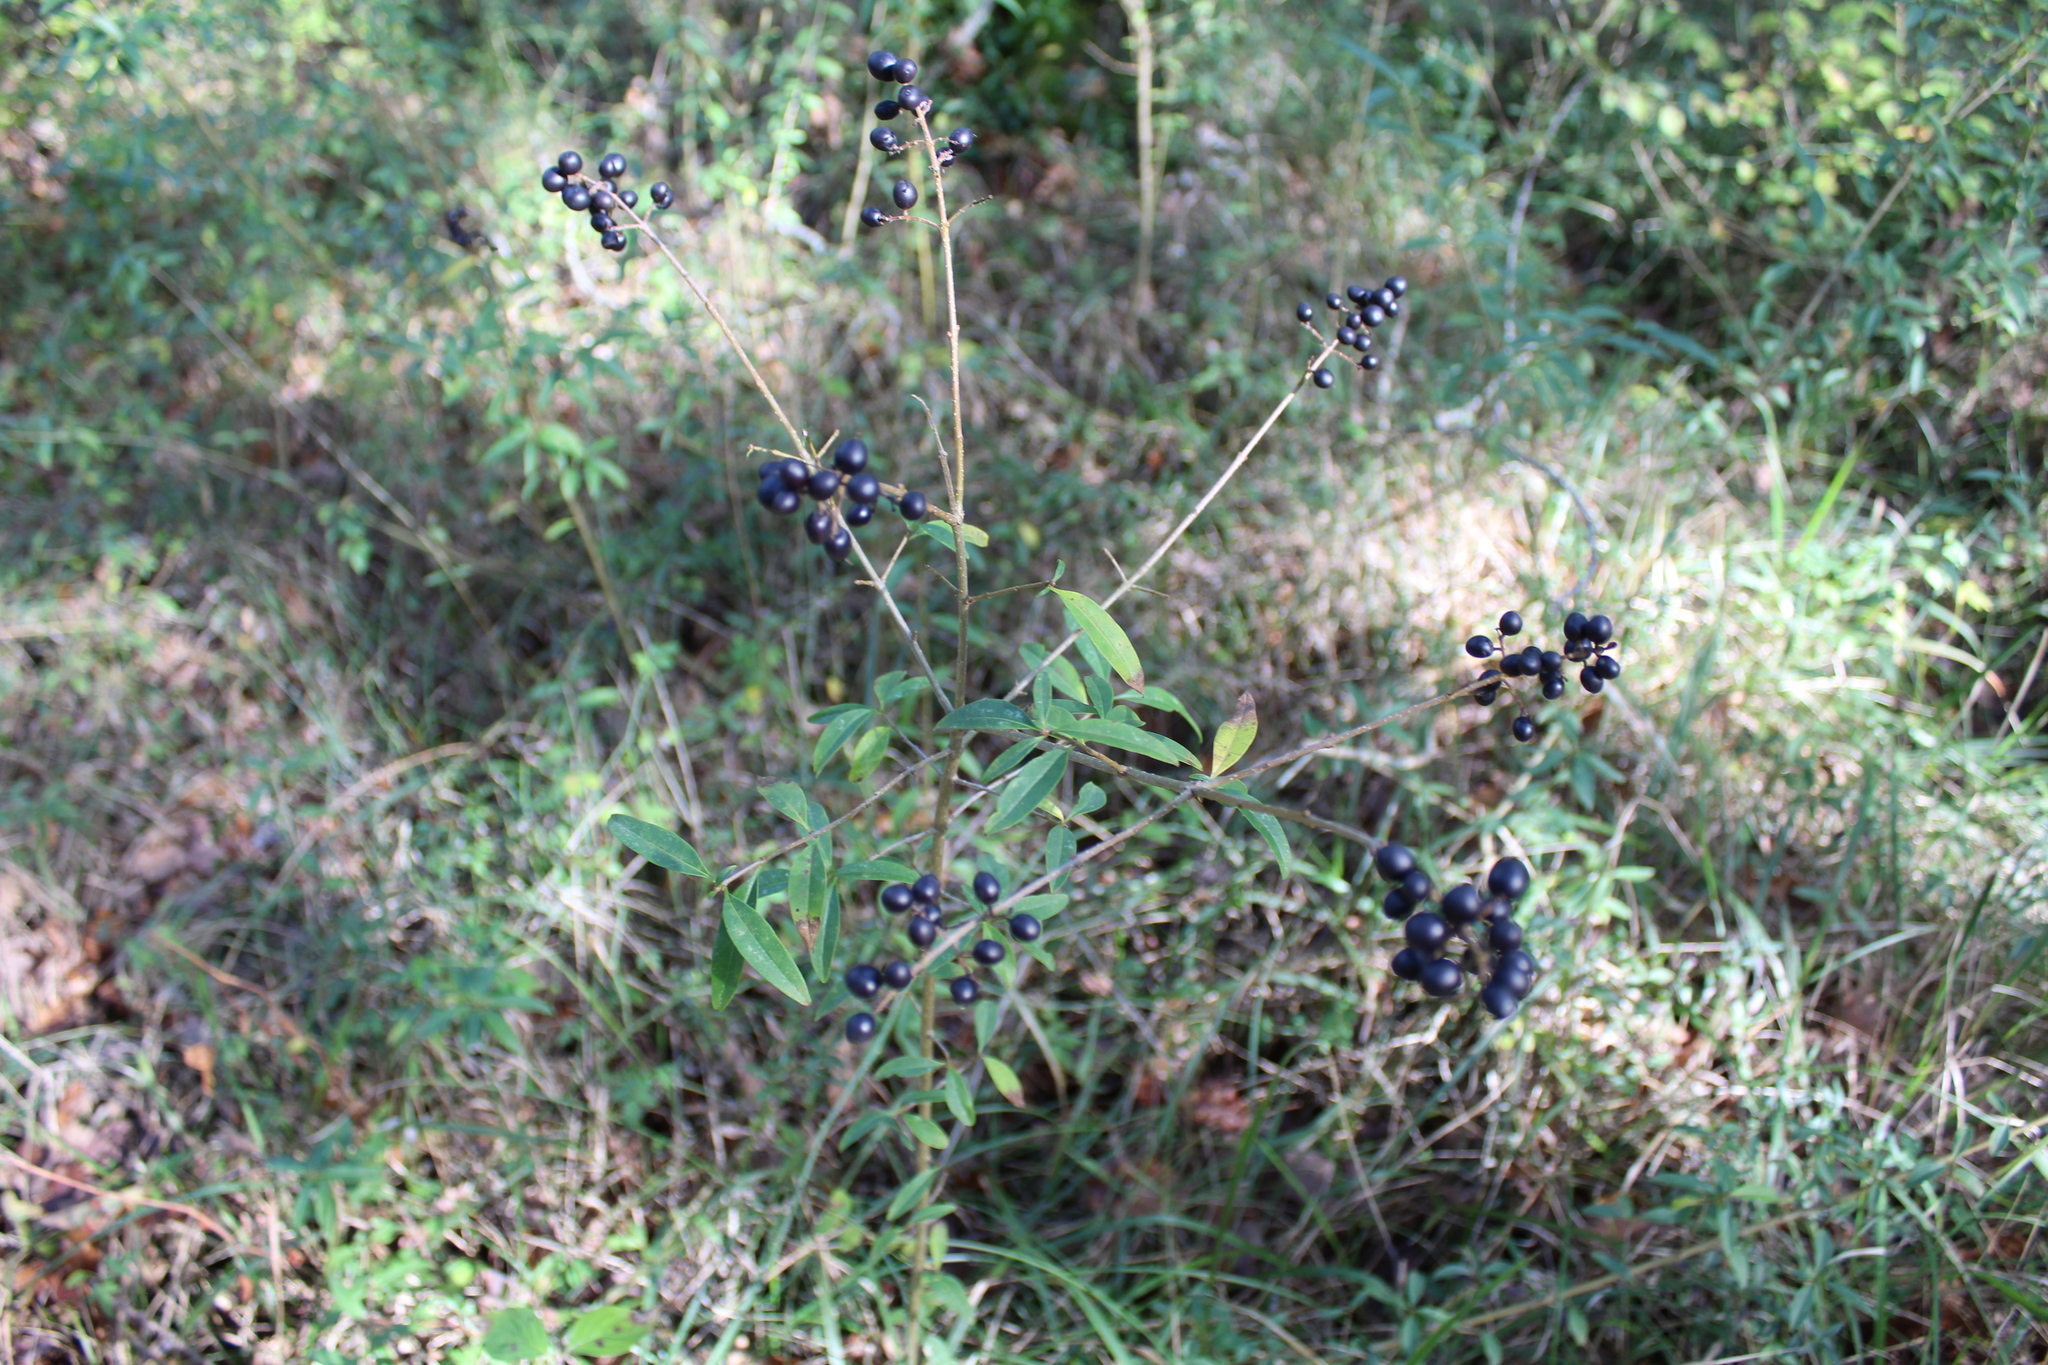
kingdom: Plantae
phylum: Tracheophyta
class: Magnoliopsida
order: Lamiales
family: Oleaceae
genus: Ligustrum
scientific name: Ligustrum vulgare
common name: Wild privet
